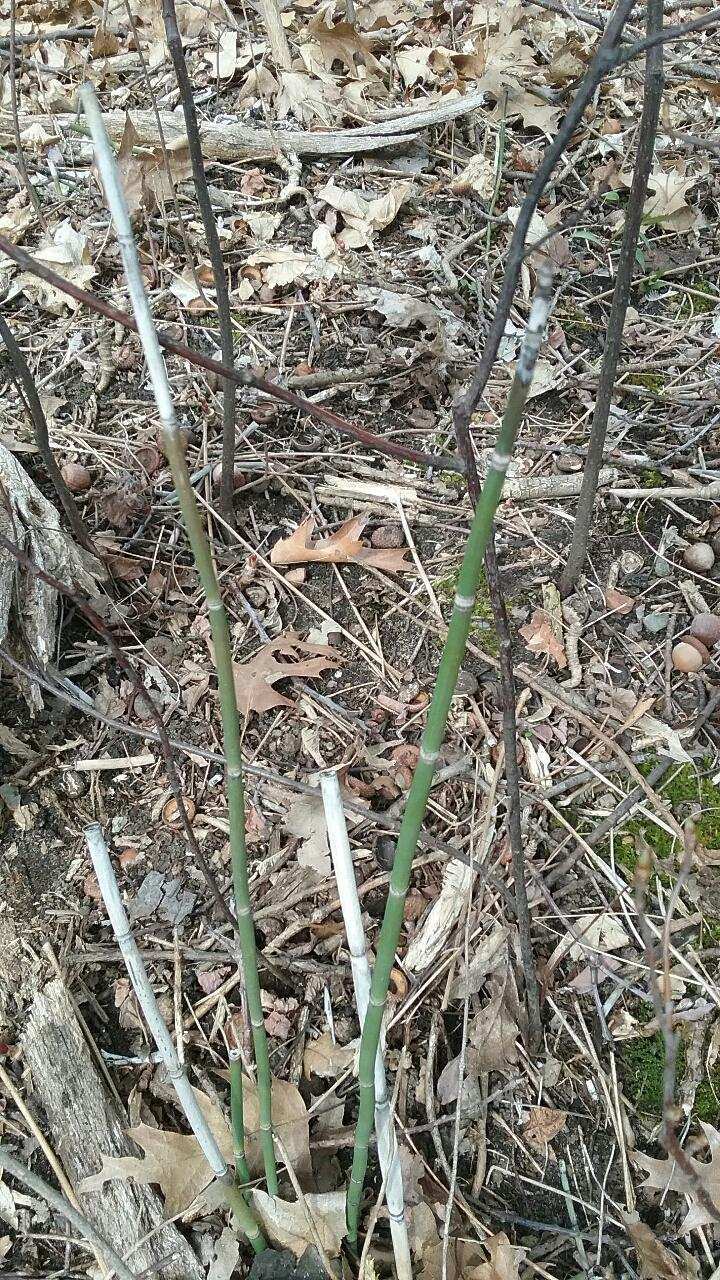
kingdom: Plantae
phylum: Tracheophyta
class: Polypodiopsida
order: Equisetales
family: Equisetaceae
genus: Equisetum
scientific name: Equisetum praealtum
